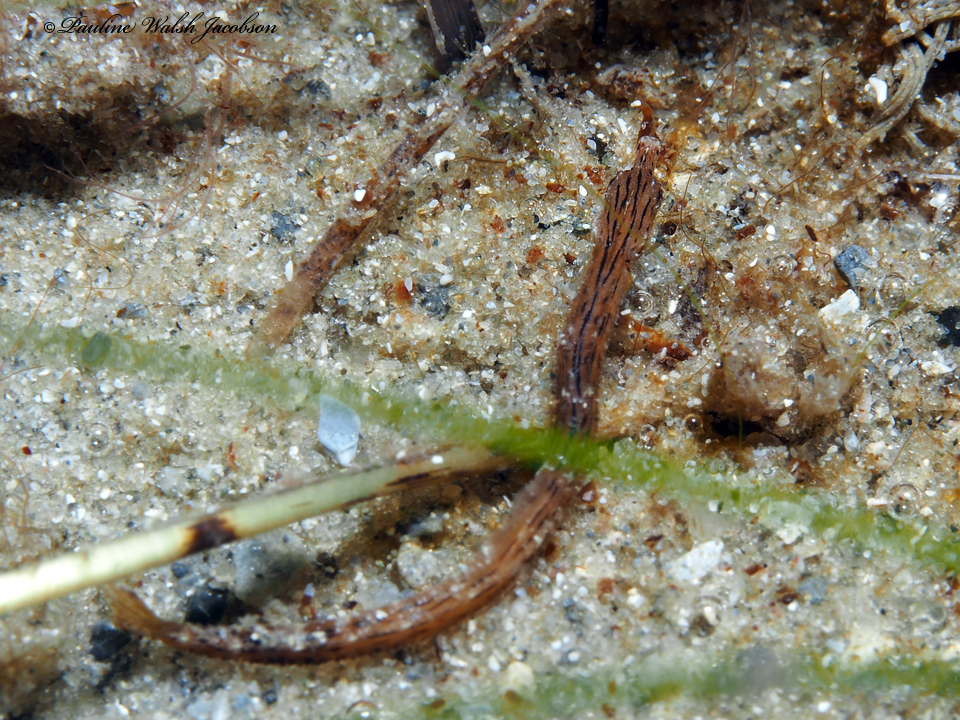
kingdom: Animalia
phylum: Chordata
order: Syngnathiformes
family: Syngnathidae
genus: Cosmocampus
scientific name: Cosmocampus brachycephalus
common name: American crested pipefish
